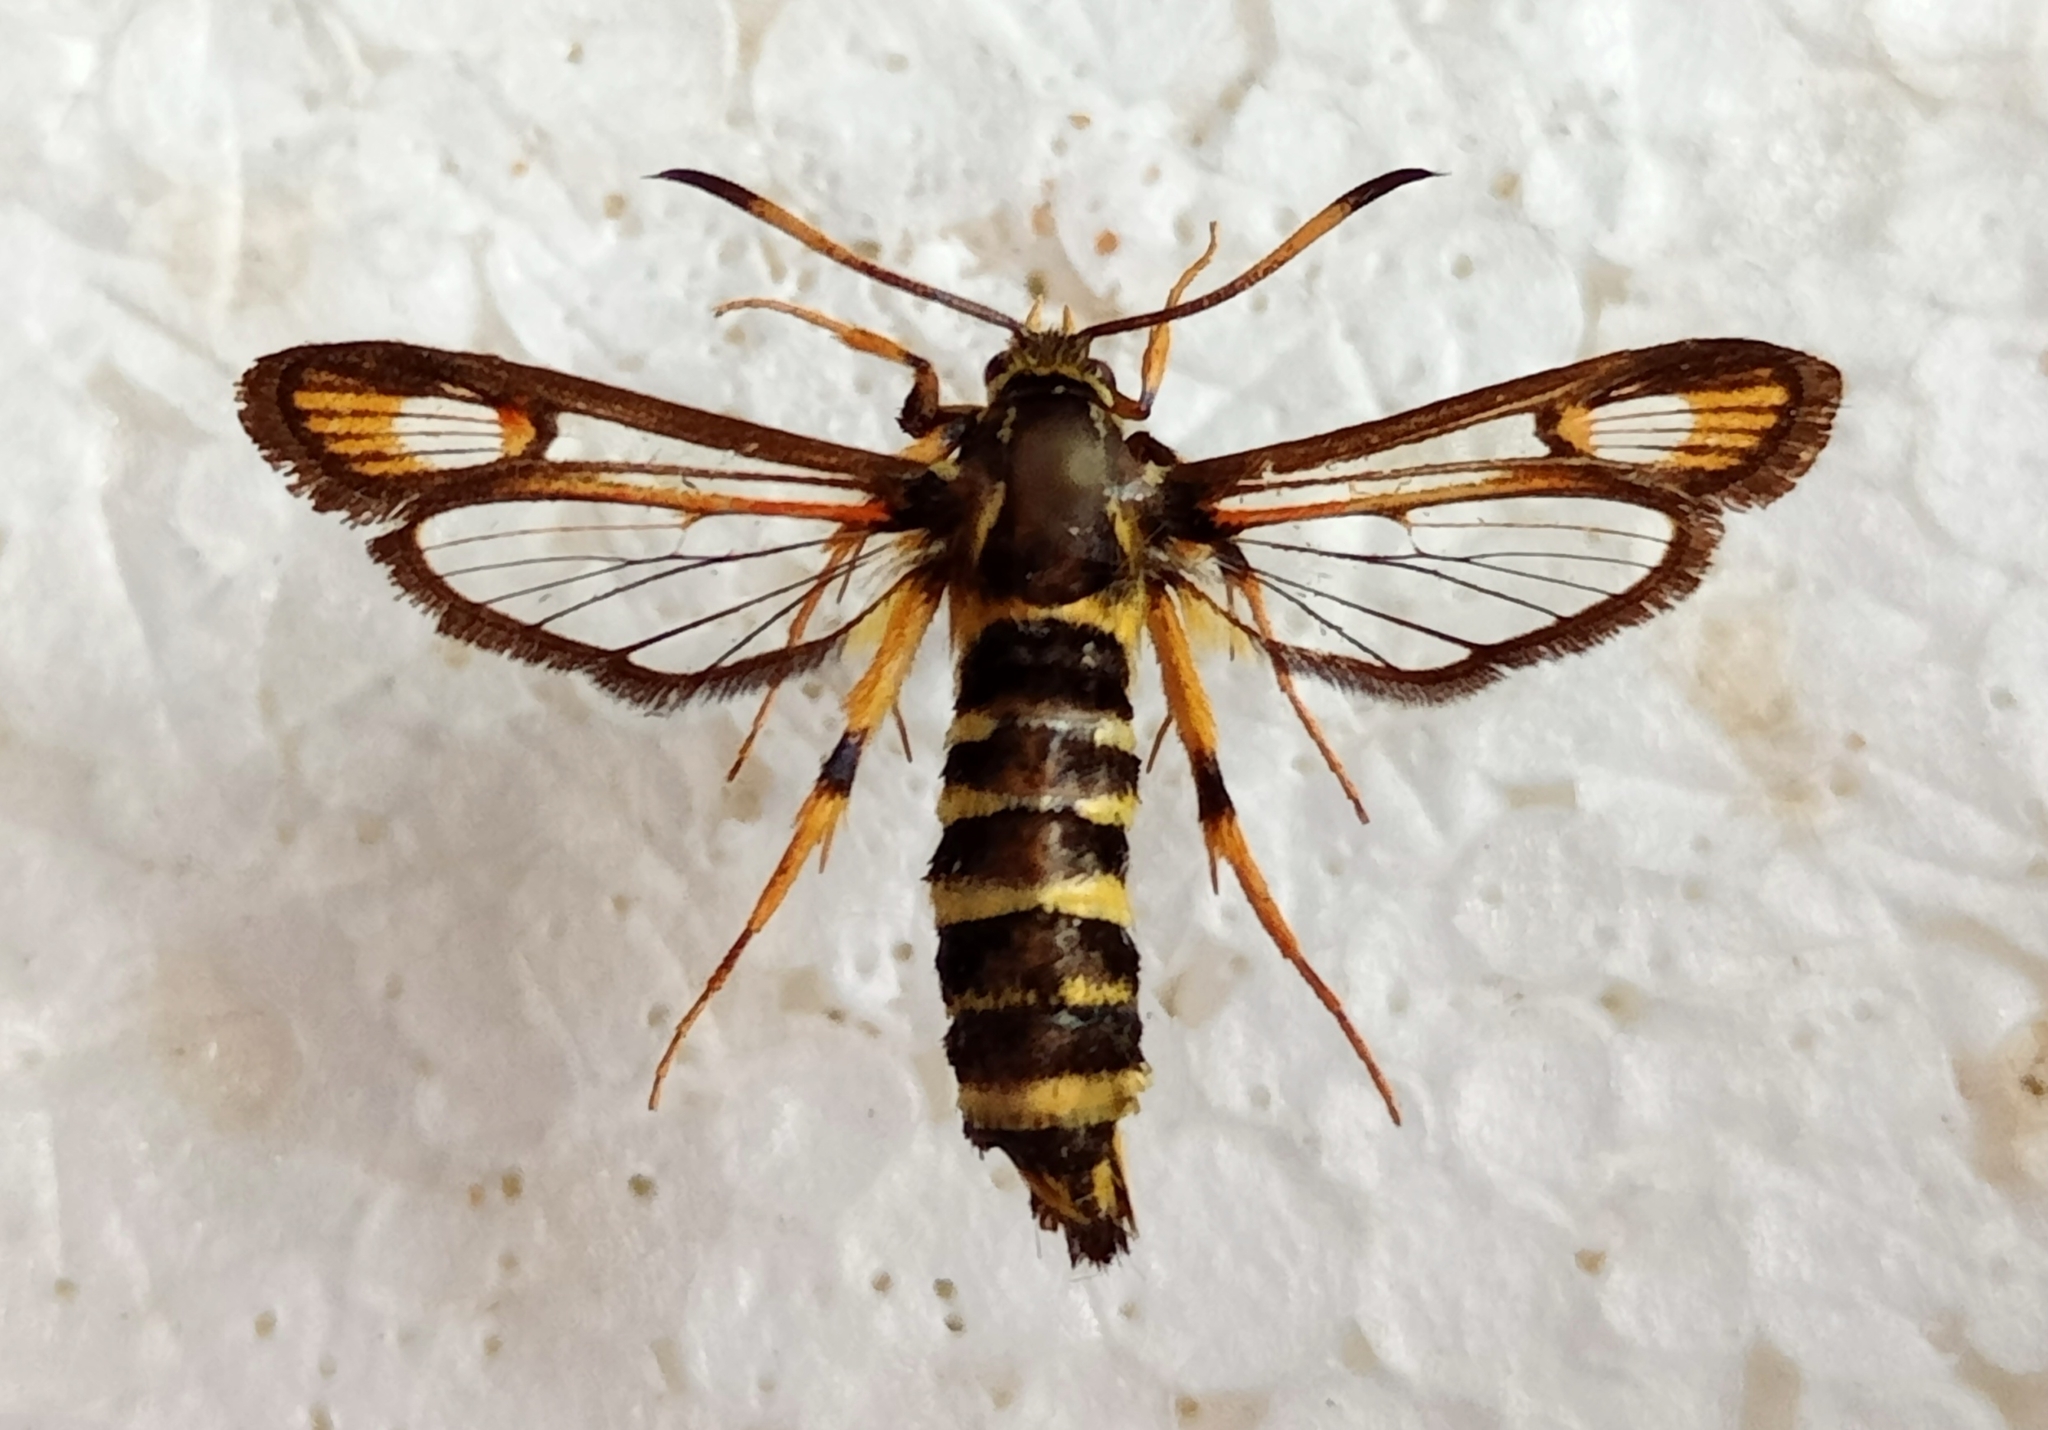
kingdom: Animalia
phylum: Arthropoda
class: Insecta
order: Lepidoptera
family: Sesiidae
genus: Bembecia
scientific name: Bembecia ichneumoniformis
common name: Six-belted clearwing
